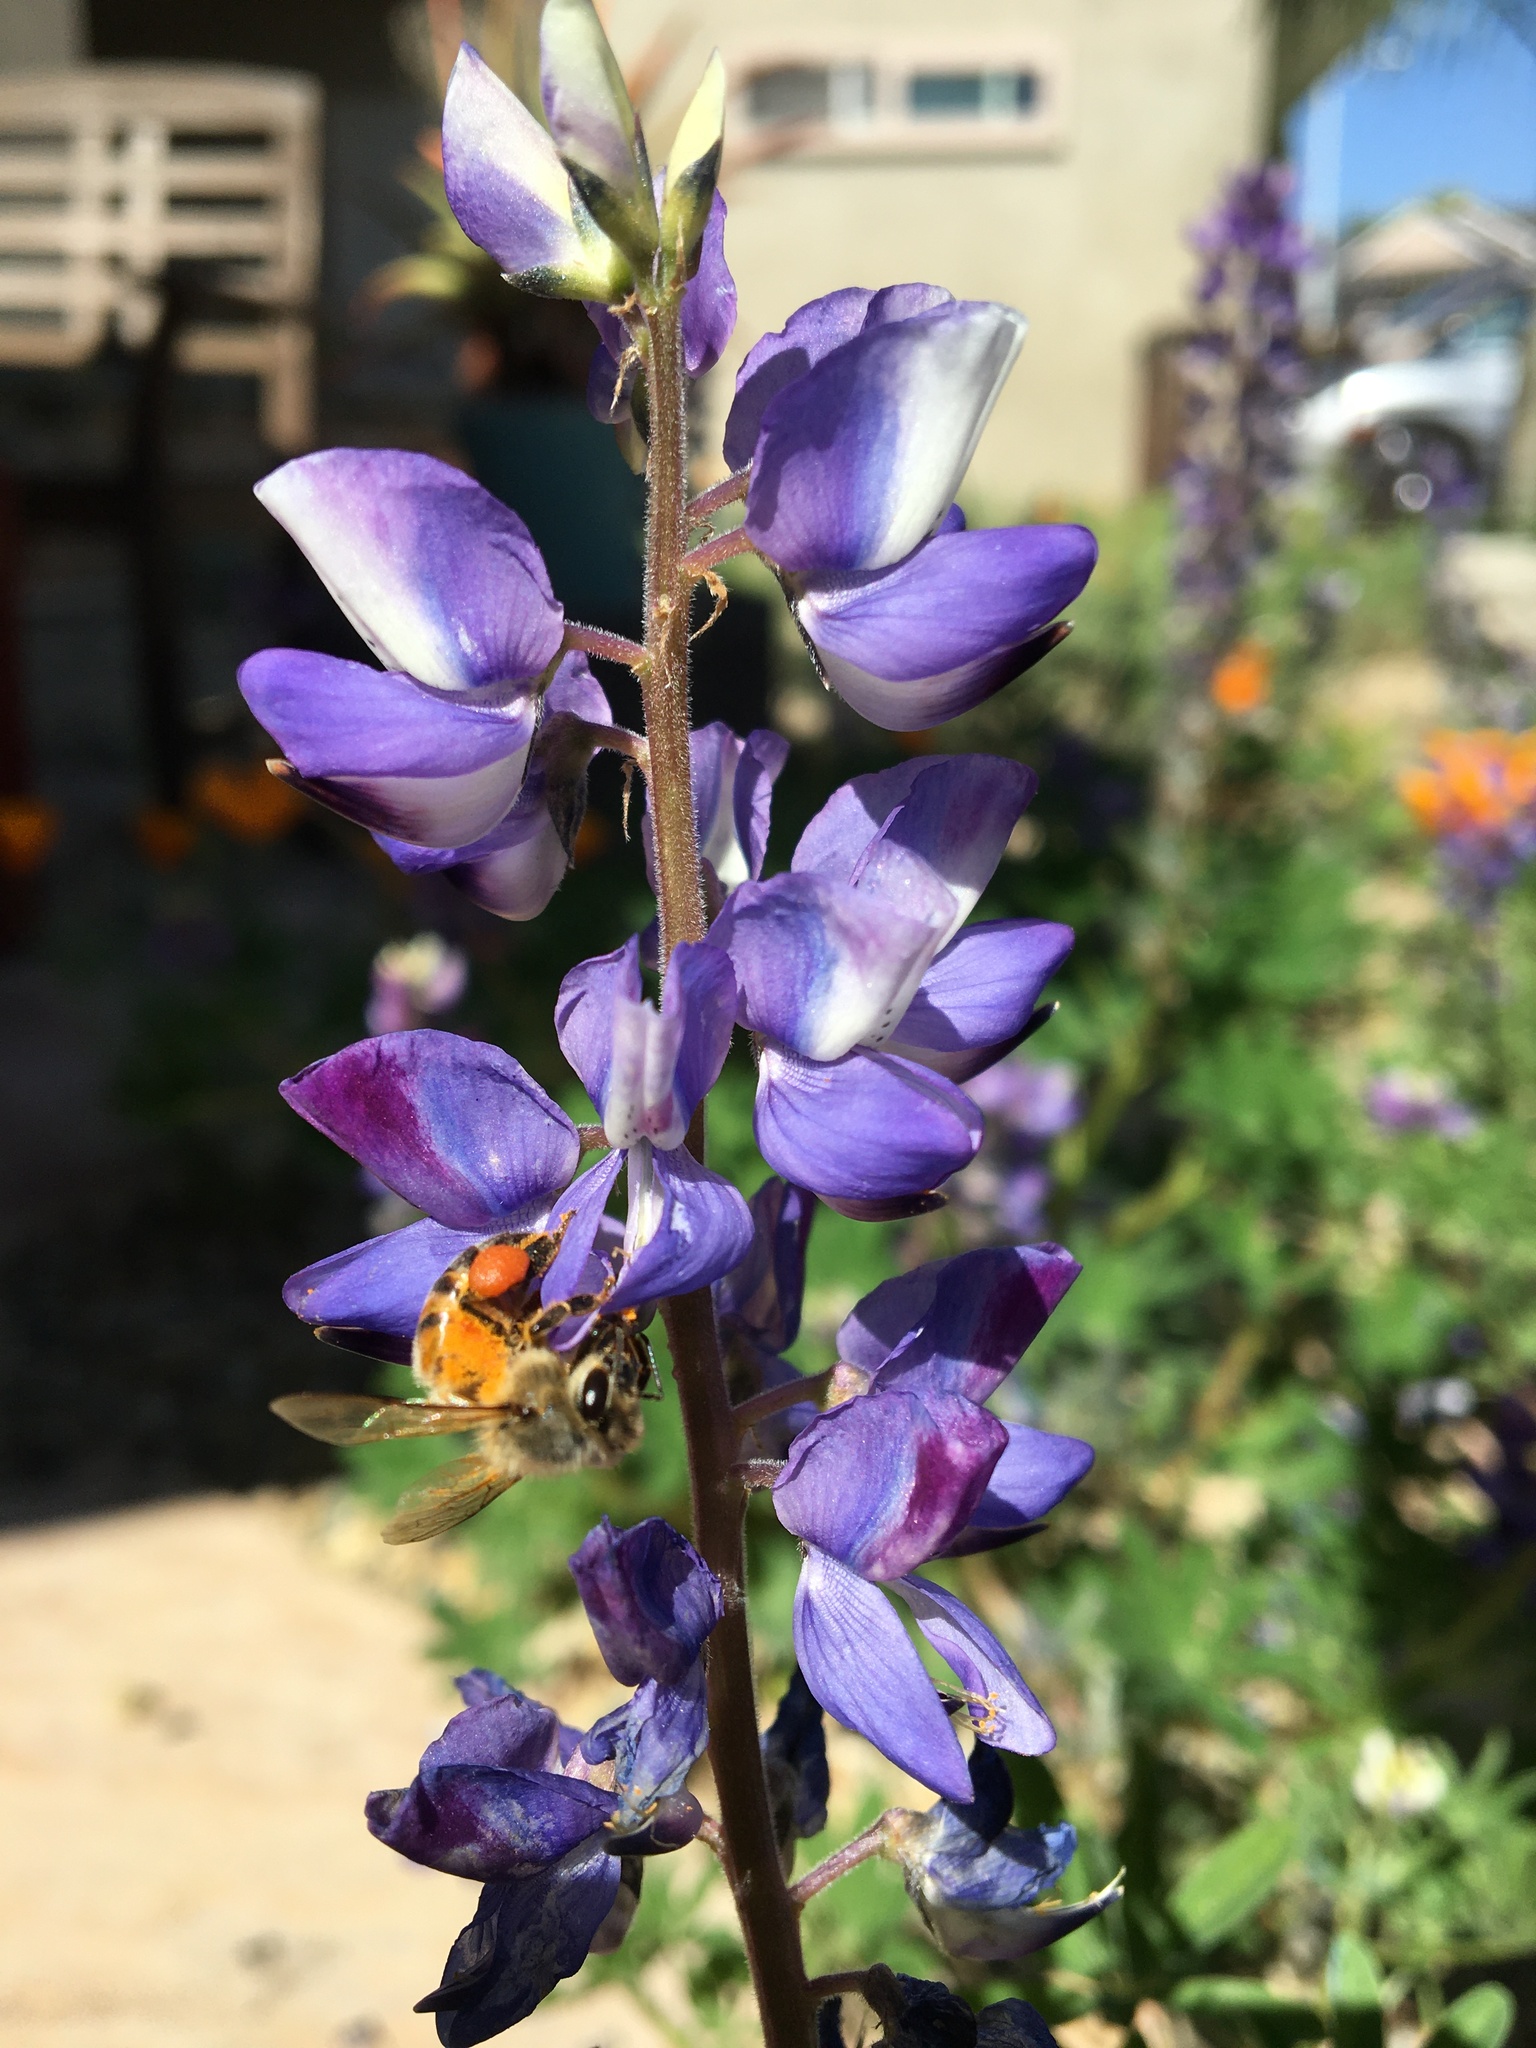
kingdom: Animalia
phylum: Arthropoda
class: Insecta
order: Hymenoptera
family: Apidae
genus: Apis
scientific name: Apis mellifera
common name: Honey bee
